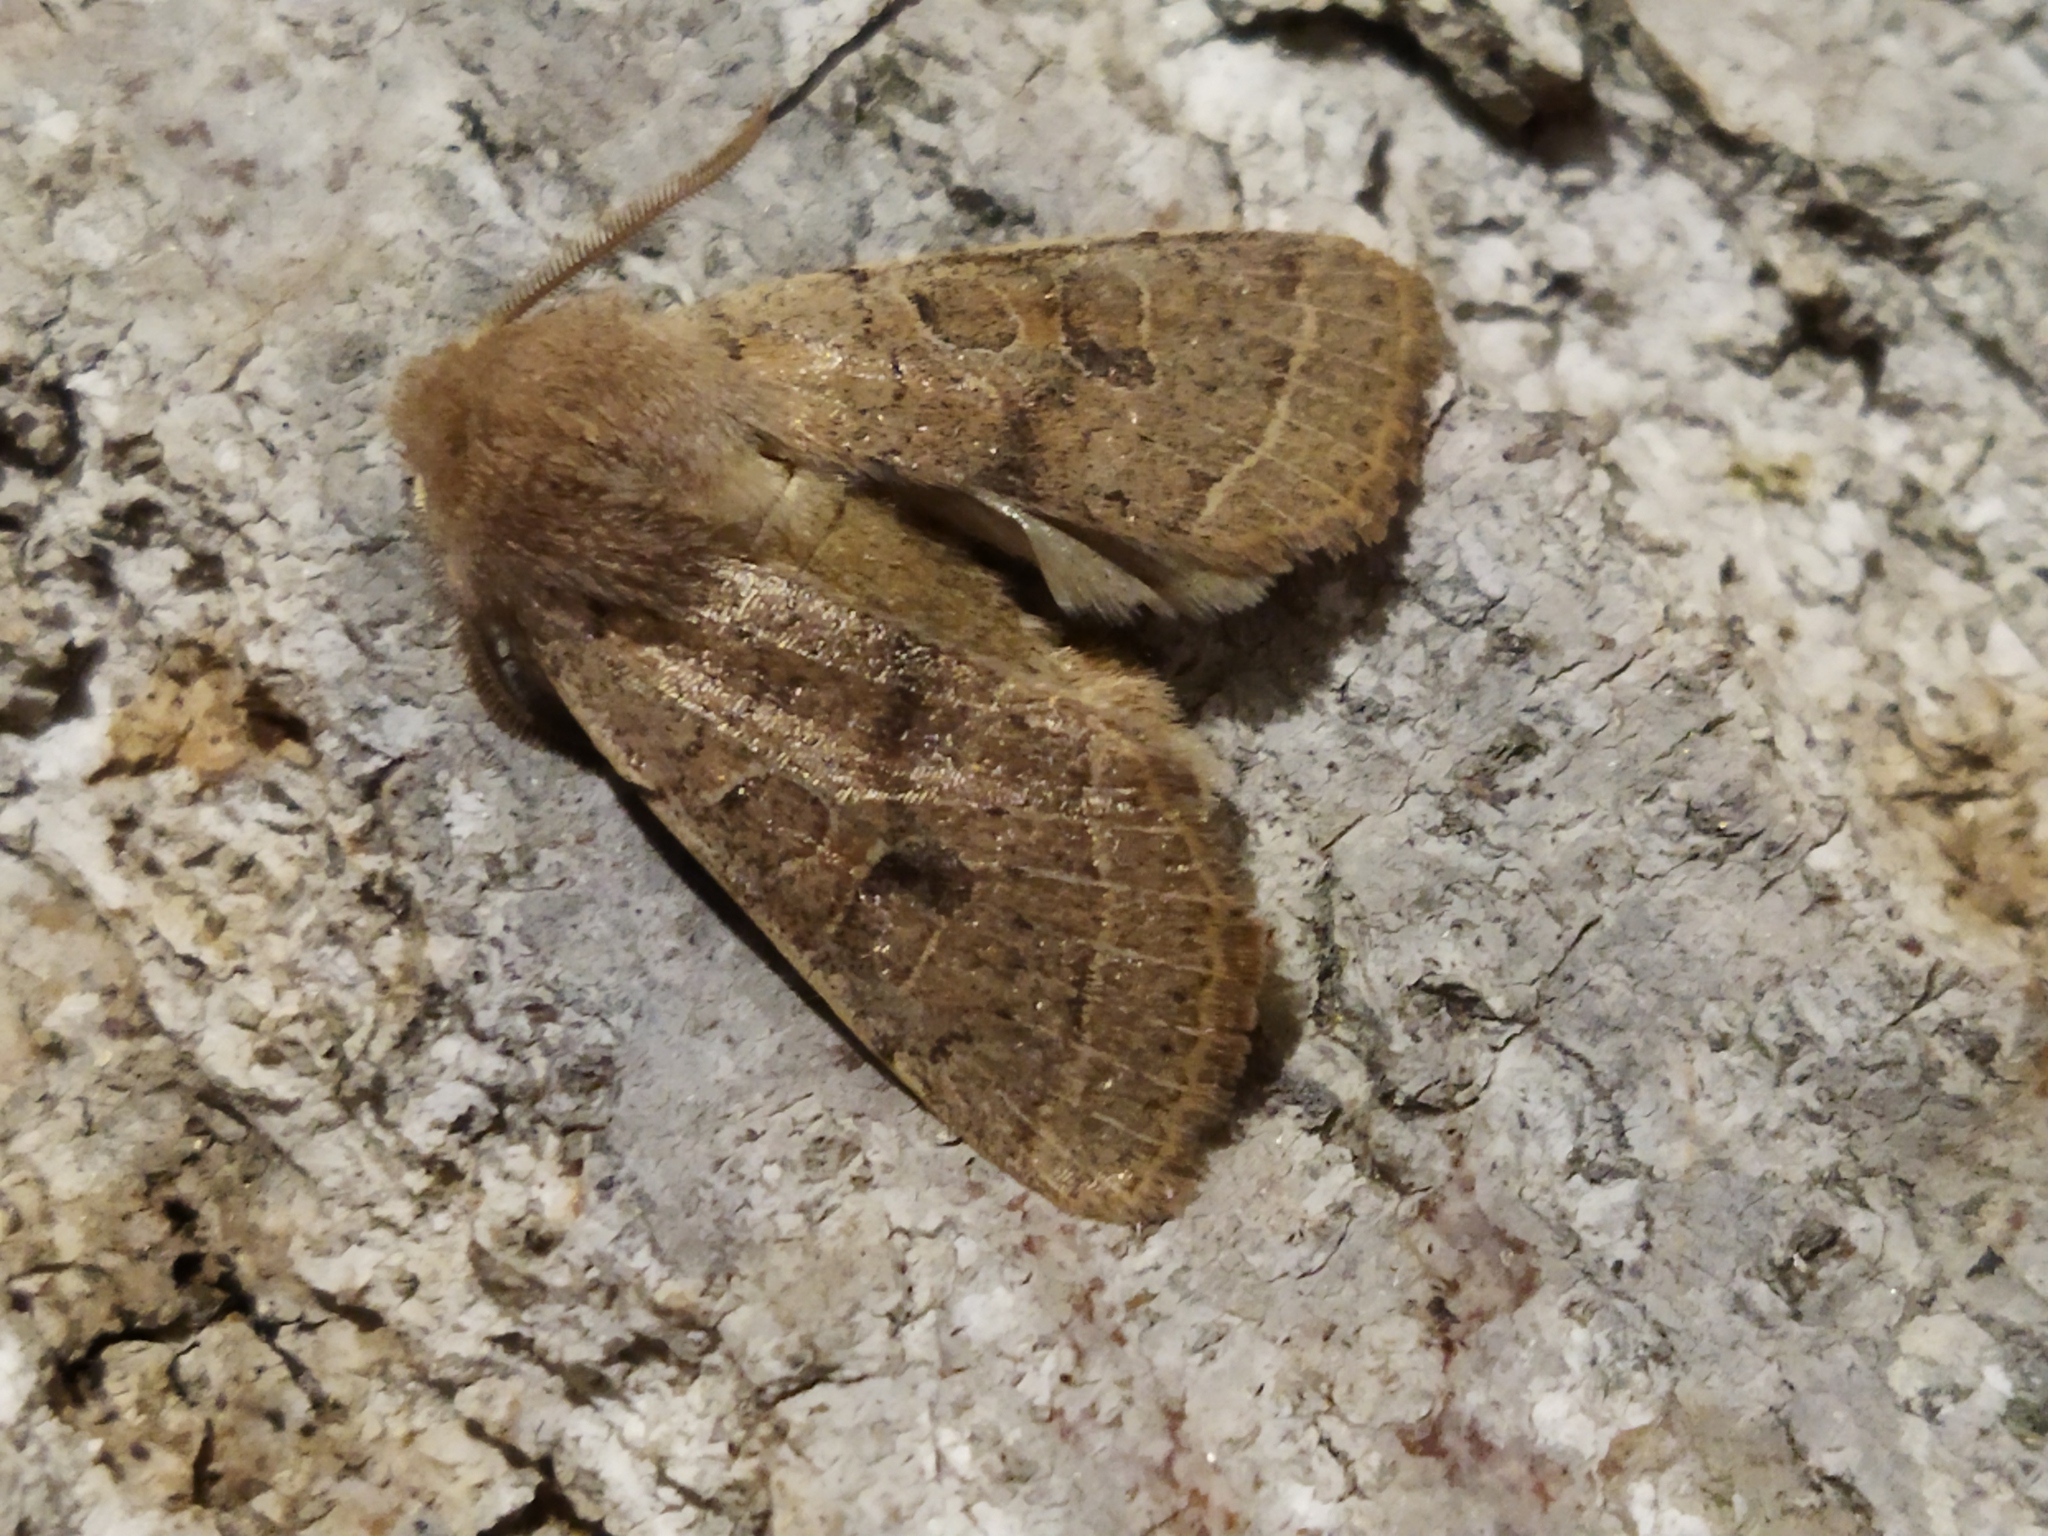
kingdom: Animalia
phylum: Arthropoda
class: Insecta
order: Lepidoptera
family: Noctuidae
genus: Orthosia
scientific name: Orthosia cerasi
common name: Common quaker
